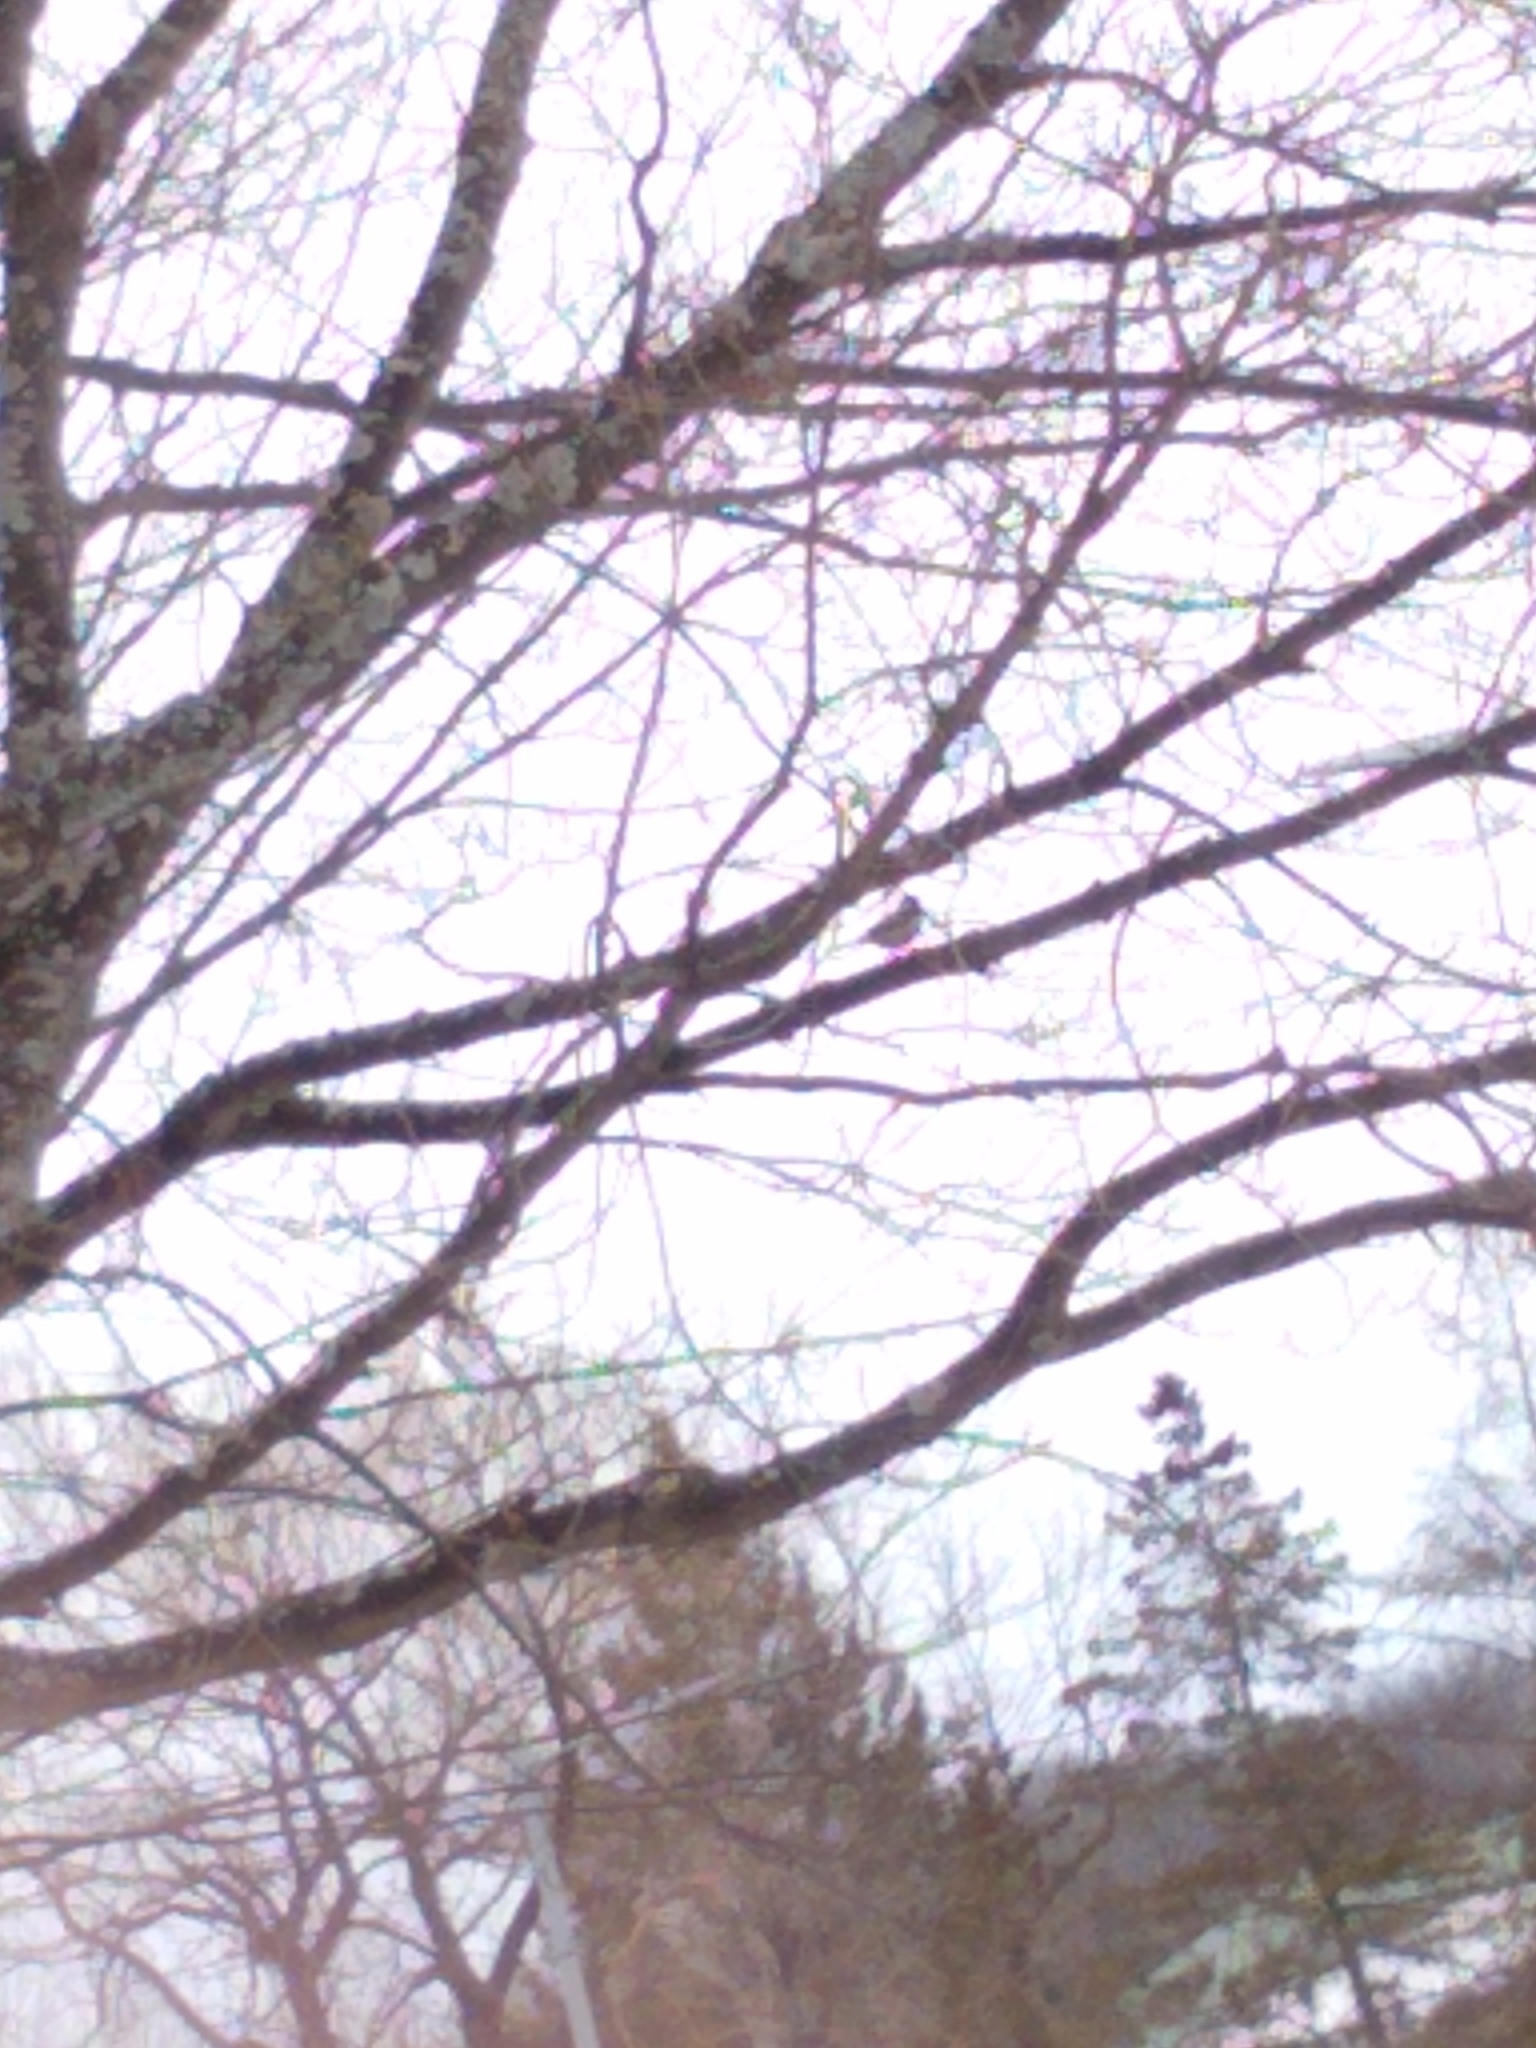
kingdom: Animalia
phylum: Chordata
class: Aves
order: Passeriformes
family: Paridae
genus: Poecile
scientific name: Poecile atricapillus
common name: Black-capped chickadee
